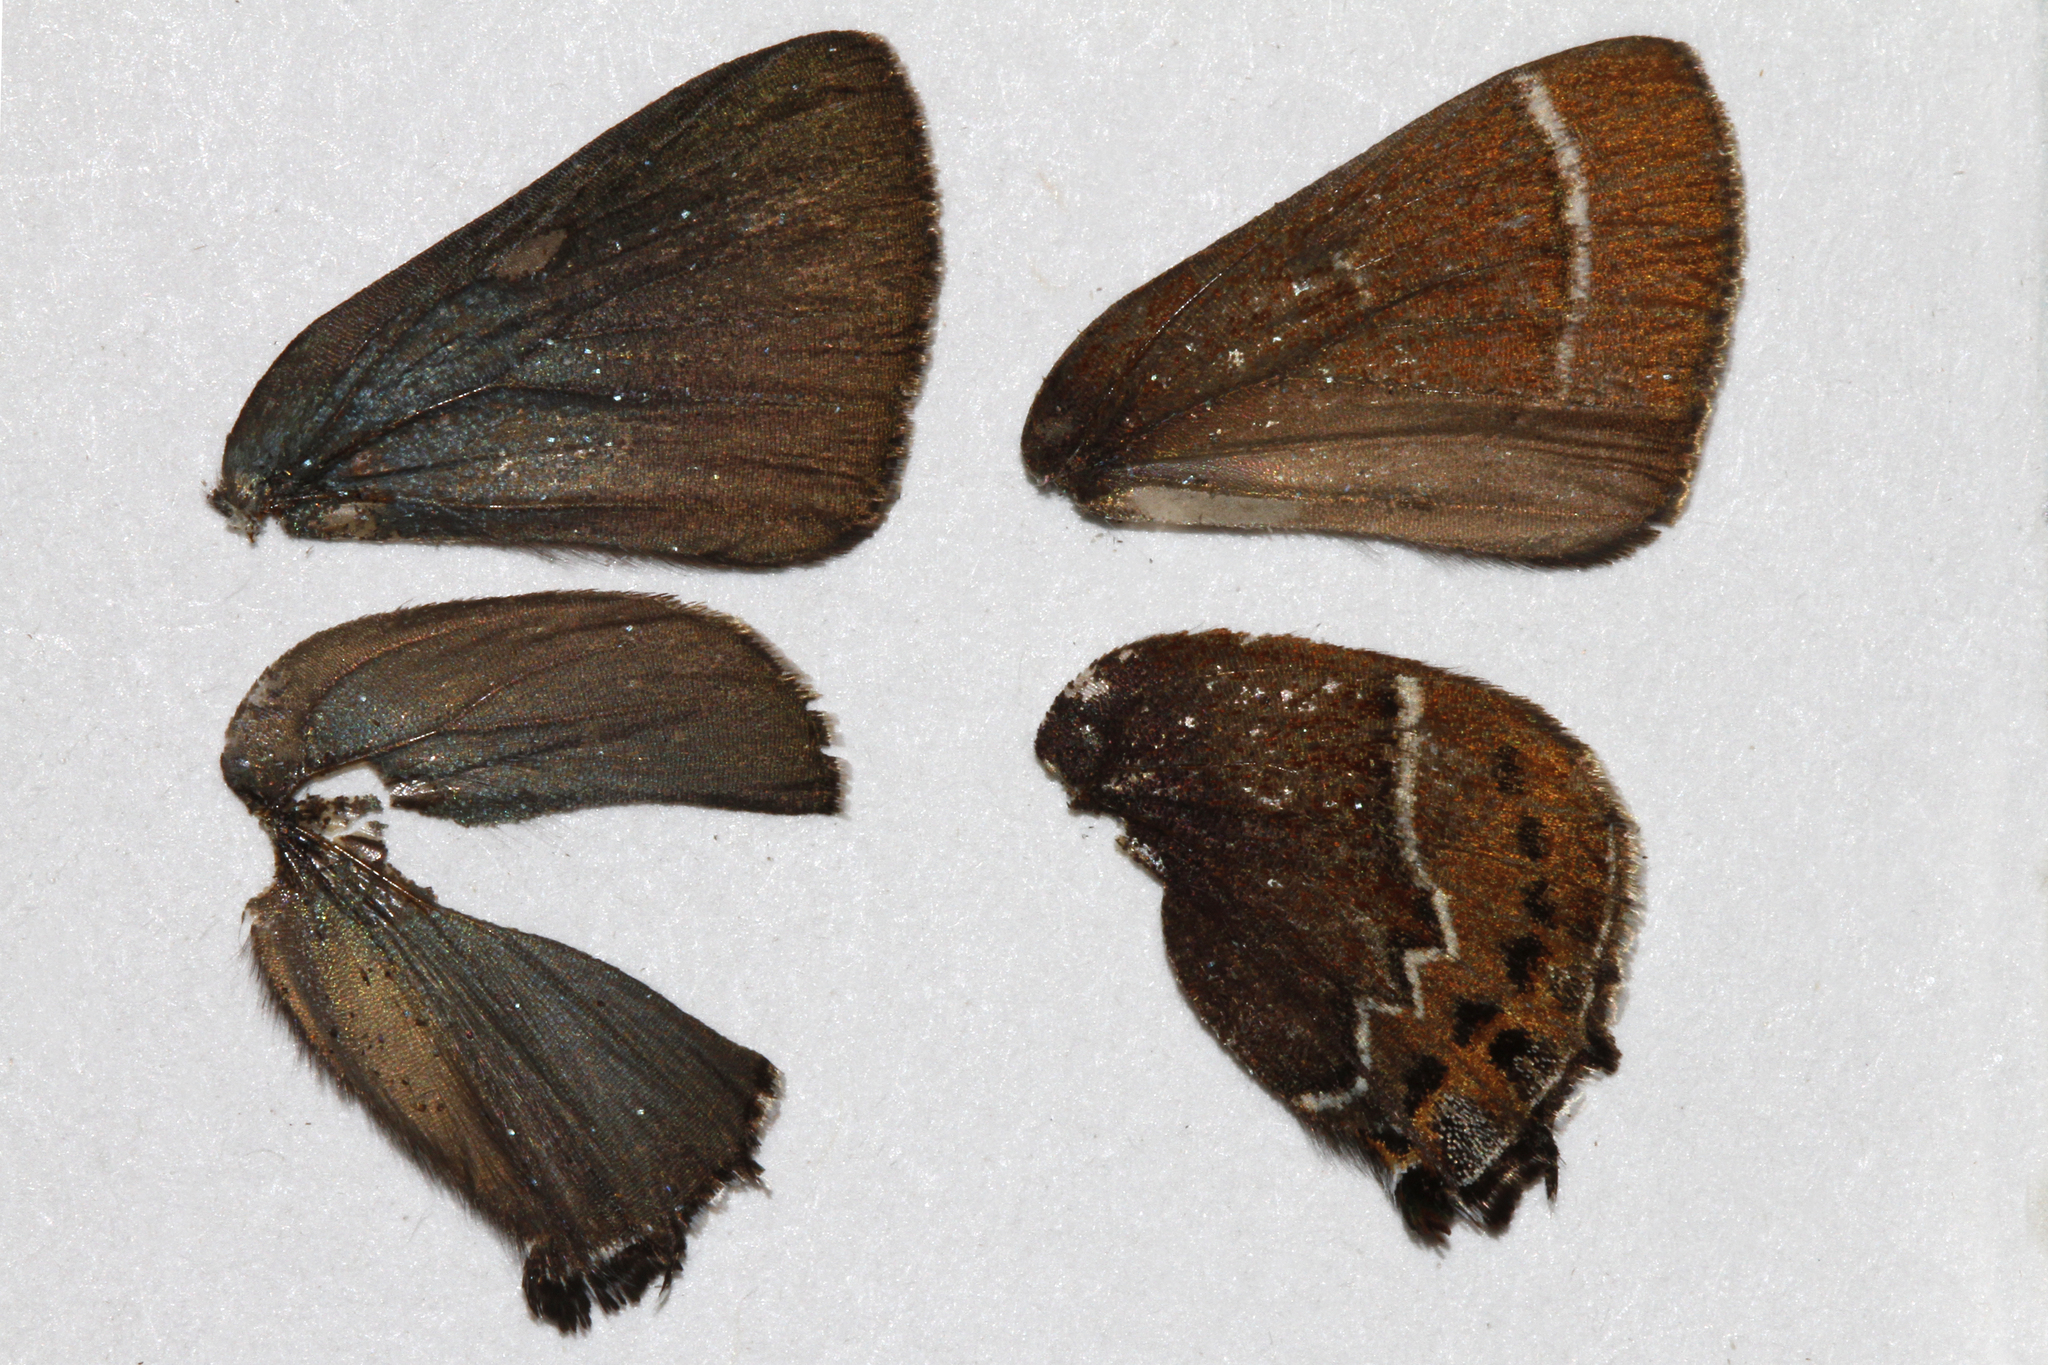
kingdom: Animalia
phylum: Arthropoda
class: Insecta
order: Lepidoptera
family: Lycaenidae
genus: Mitoura
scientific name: Mitoura spinetorum
